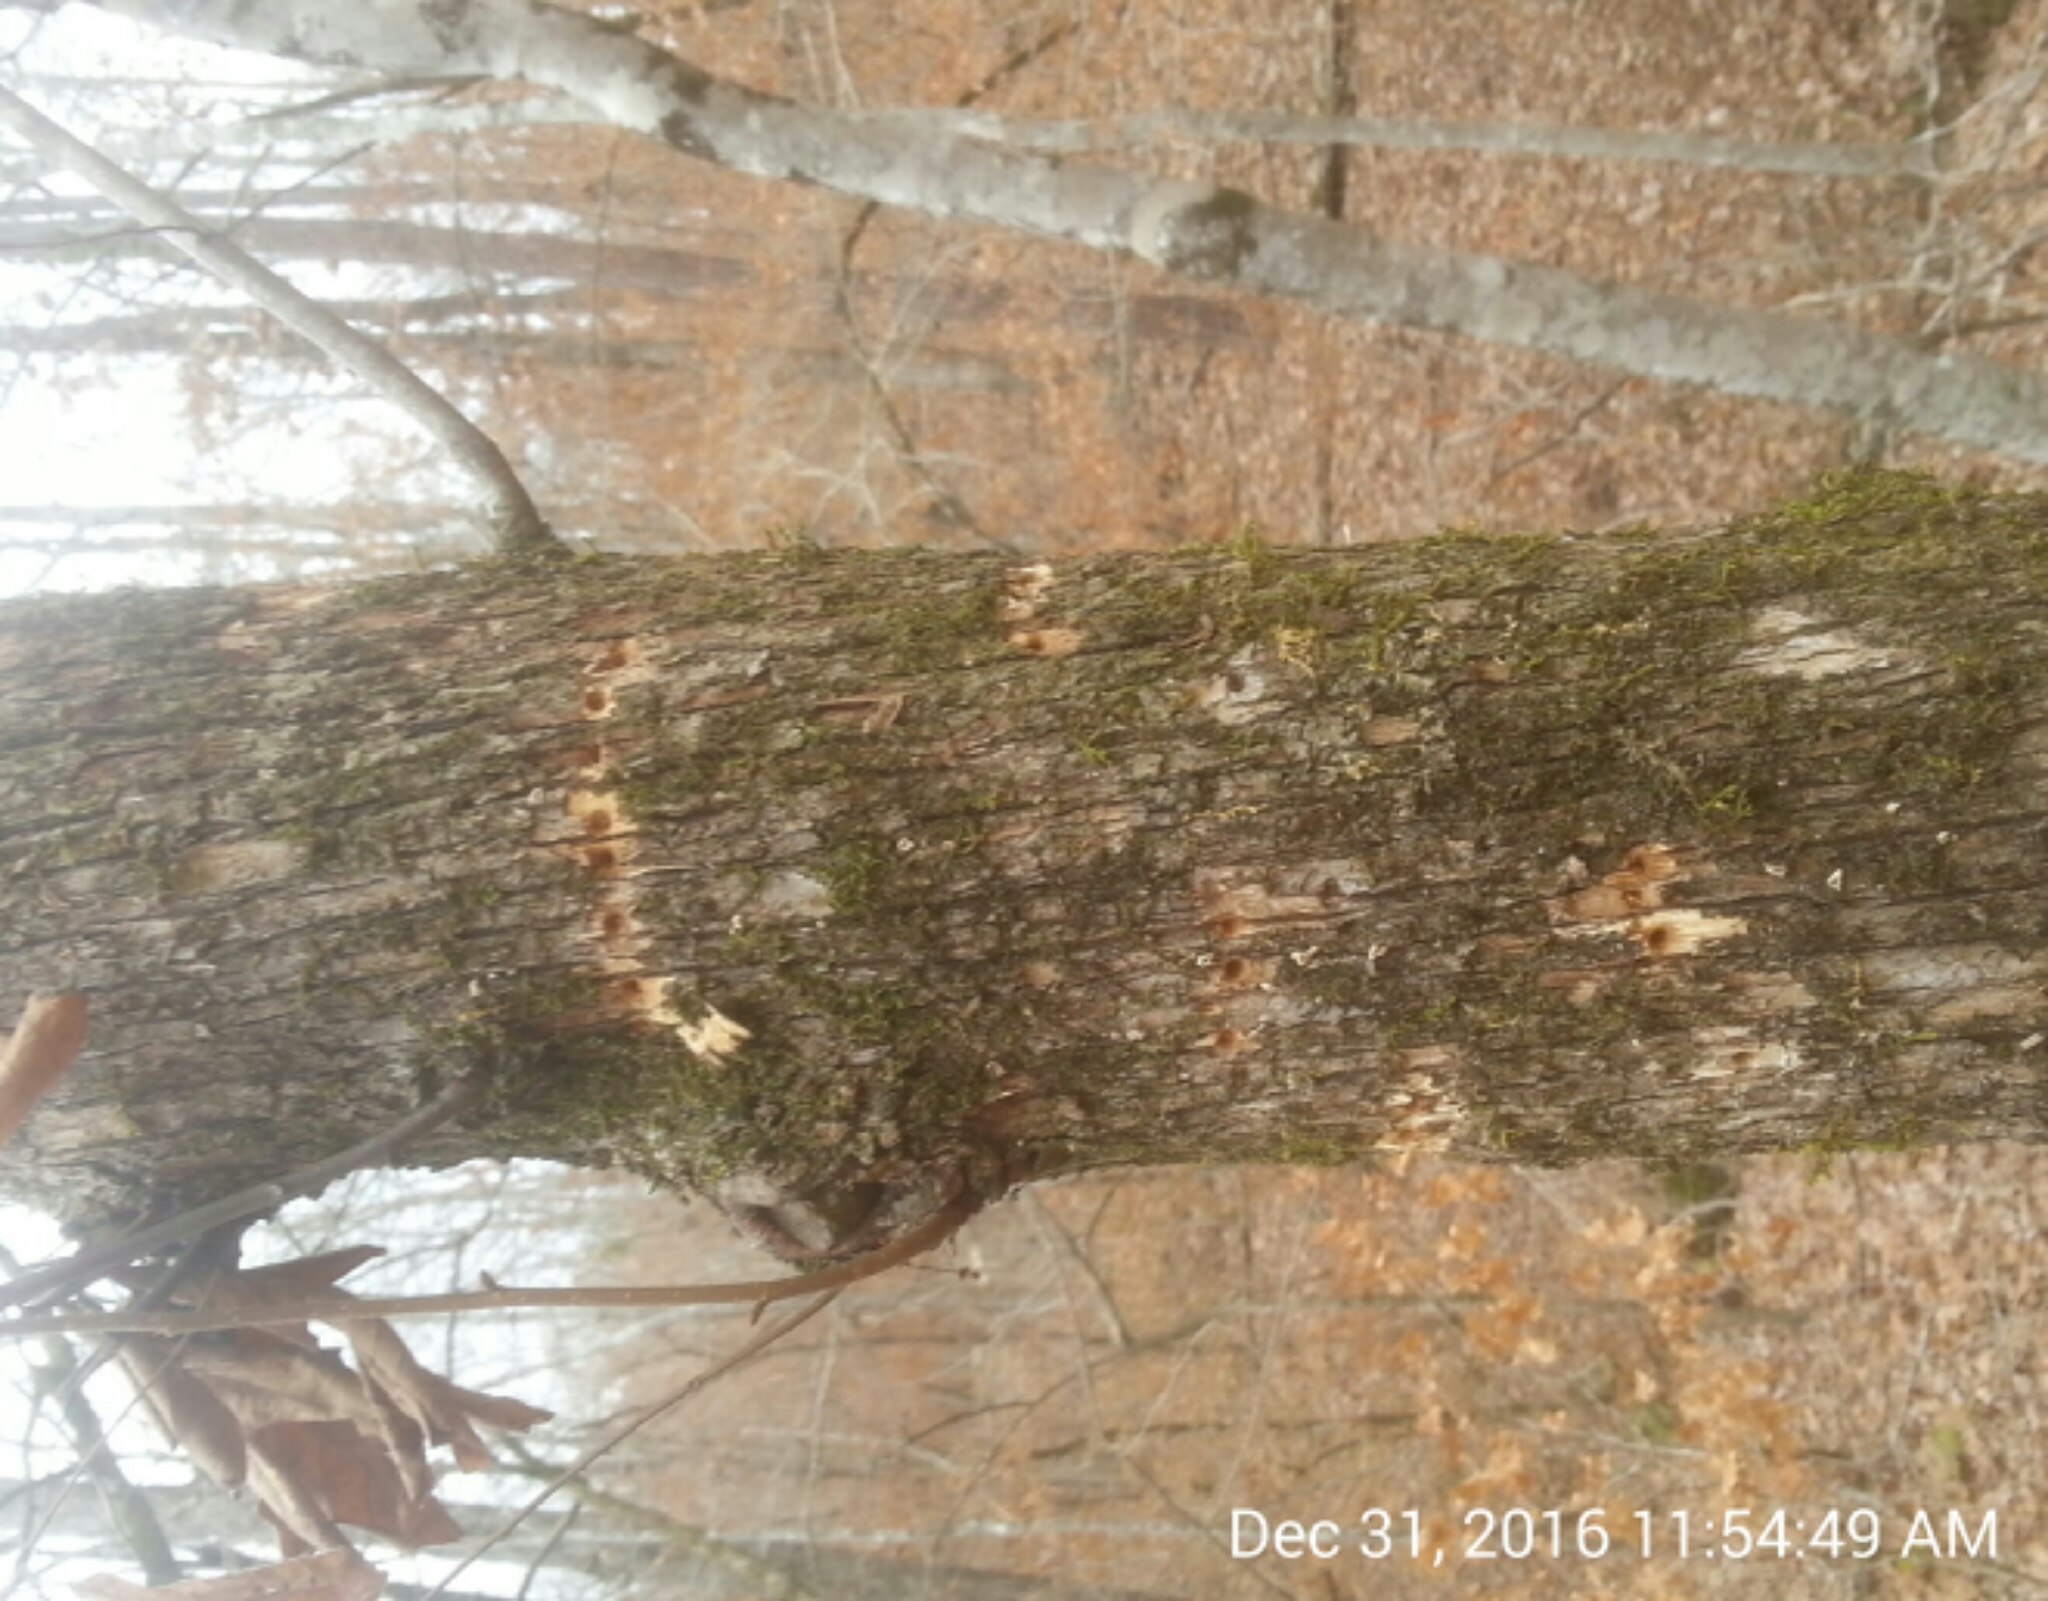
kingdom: Plantae
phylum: Tracheophyta
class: Magnoliopsida
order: Fagales
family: Betulaceae
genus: Ostrya
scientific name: Ostrya virginiana
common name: Ironwood
